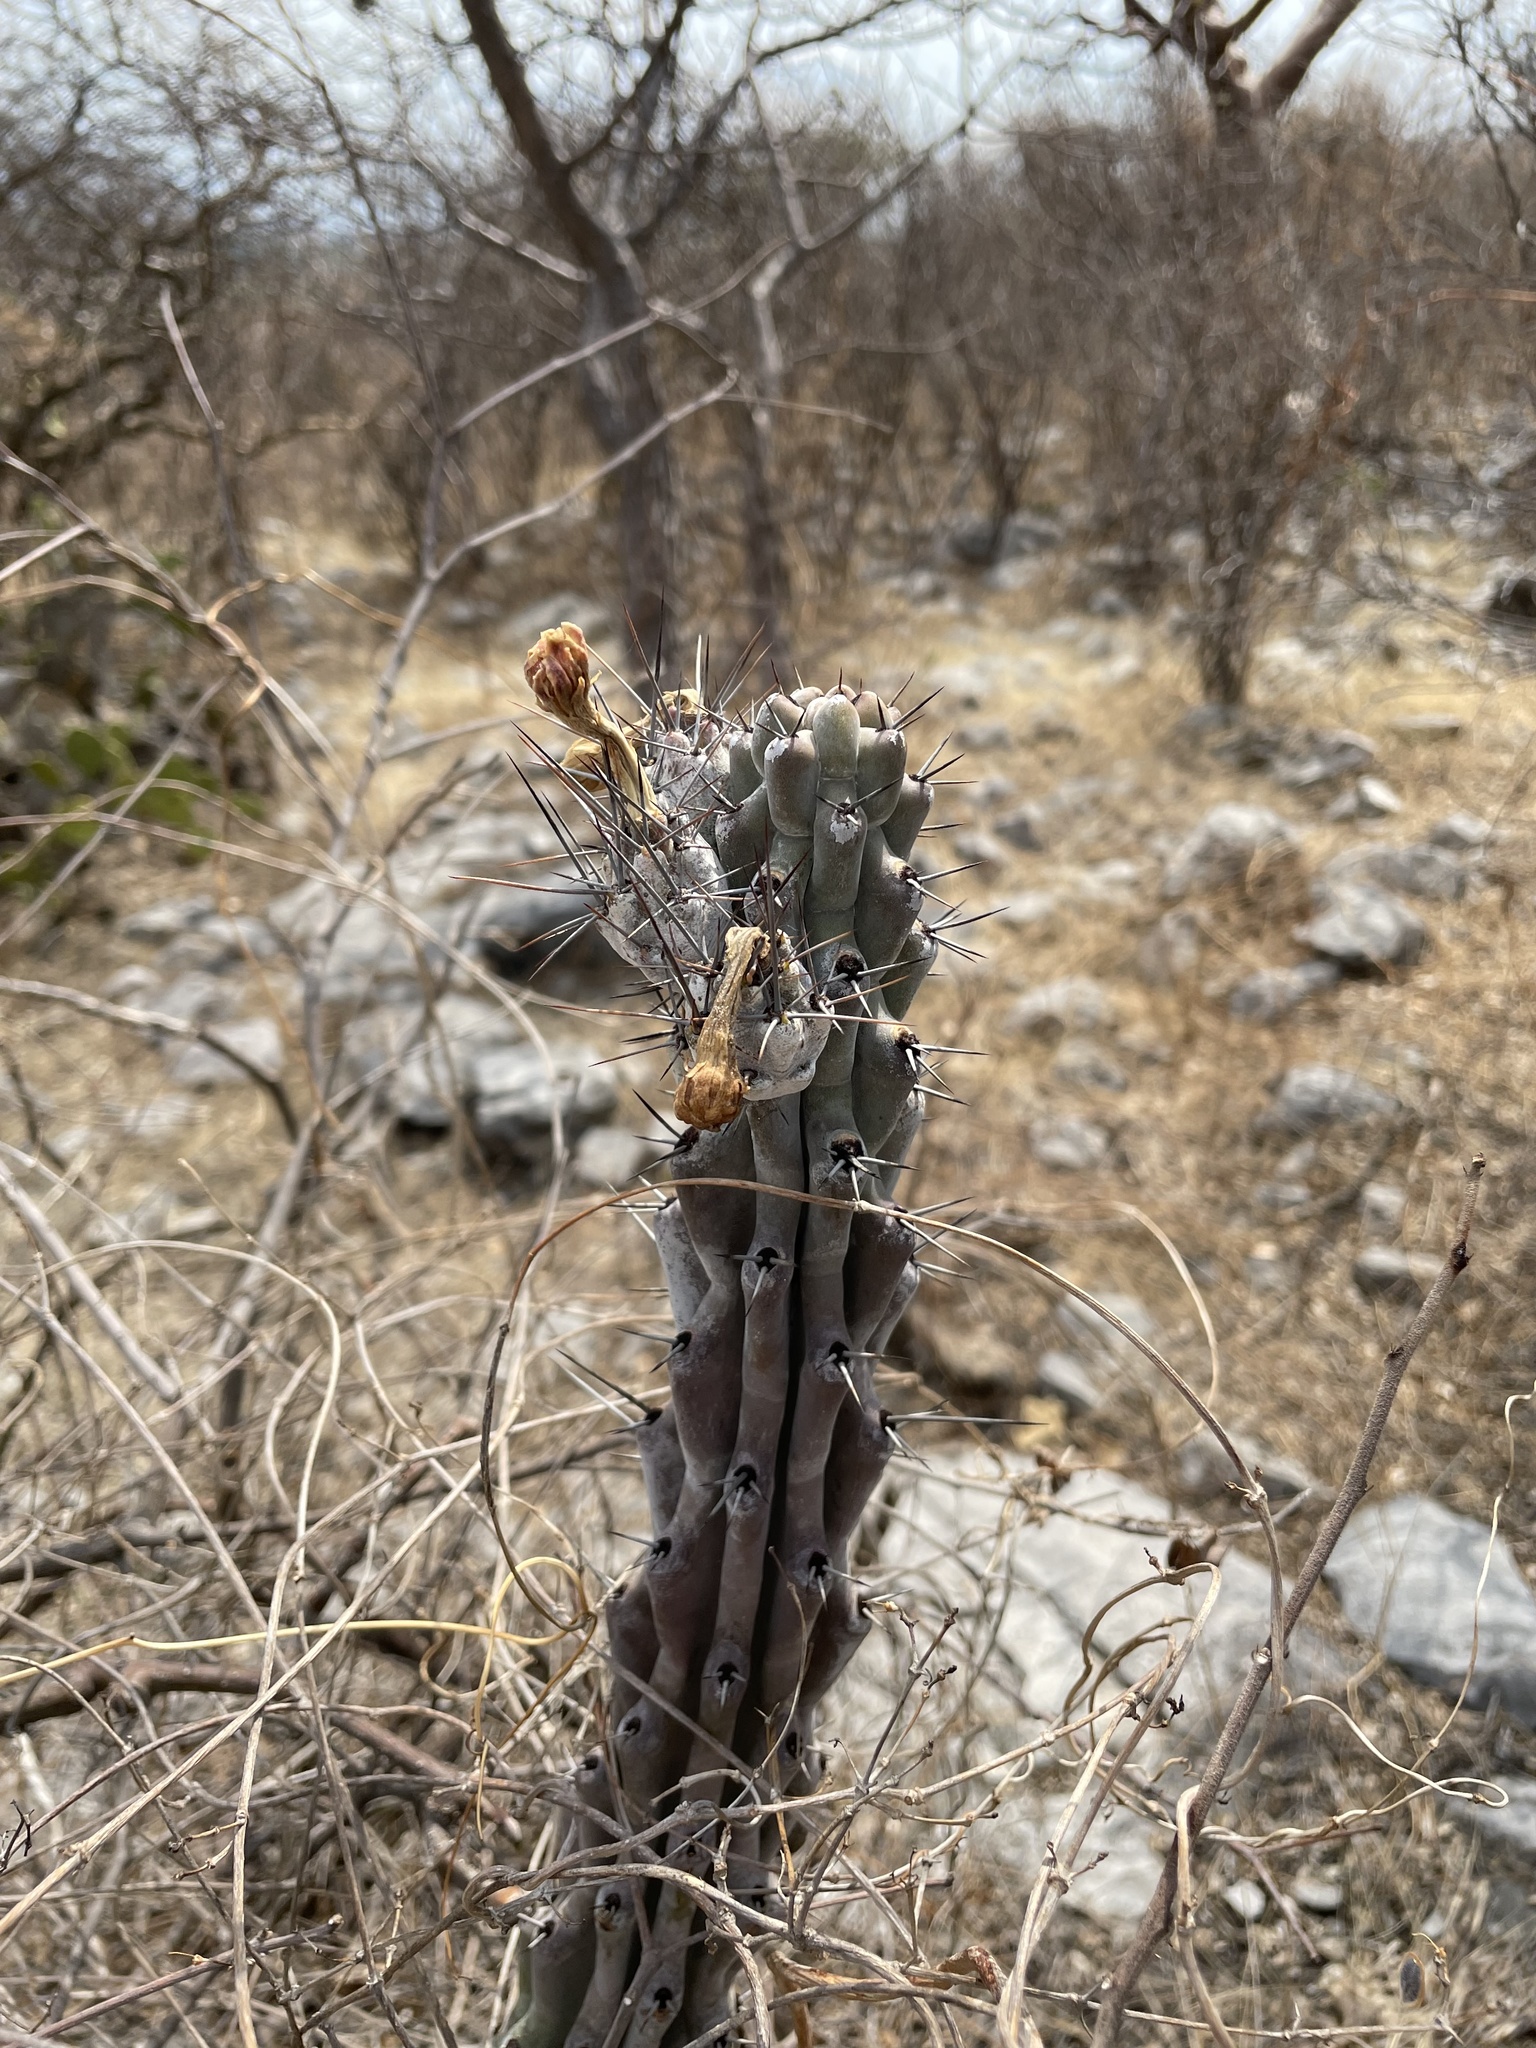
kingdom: Plantae
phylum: Tracheophyta
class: Magnoliopsida
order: Caryophyllales
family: Cactaceae
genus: Stenocereus
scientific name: Stenocereus beneckei
